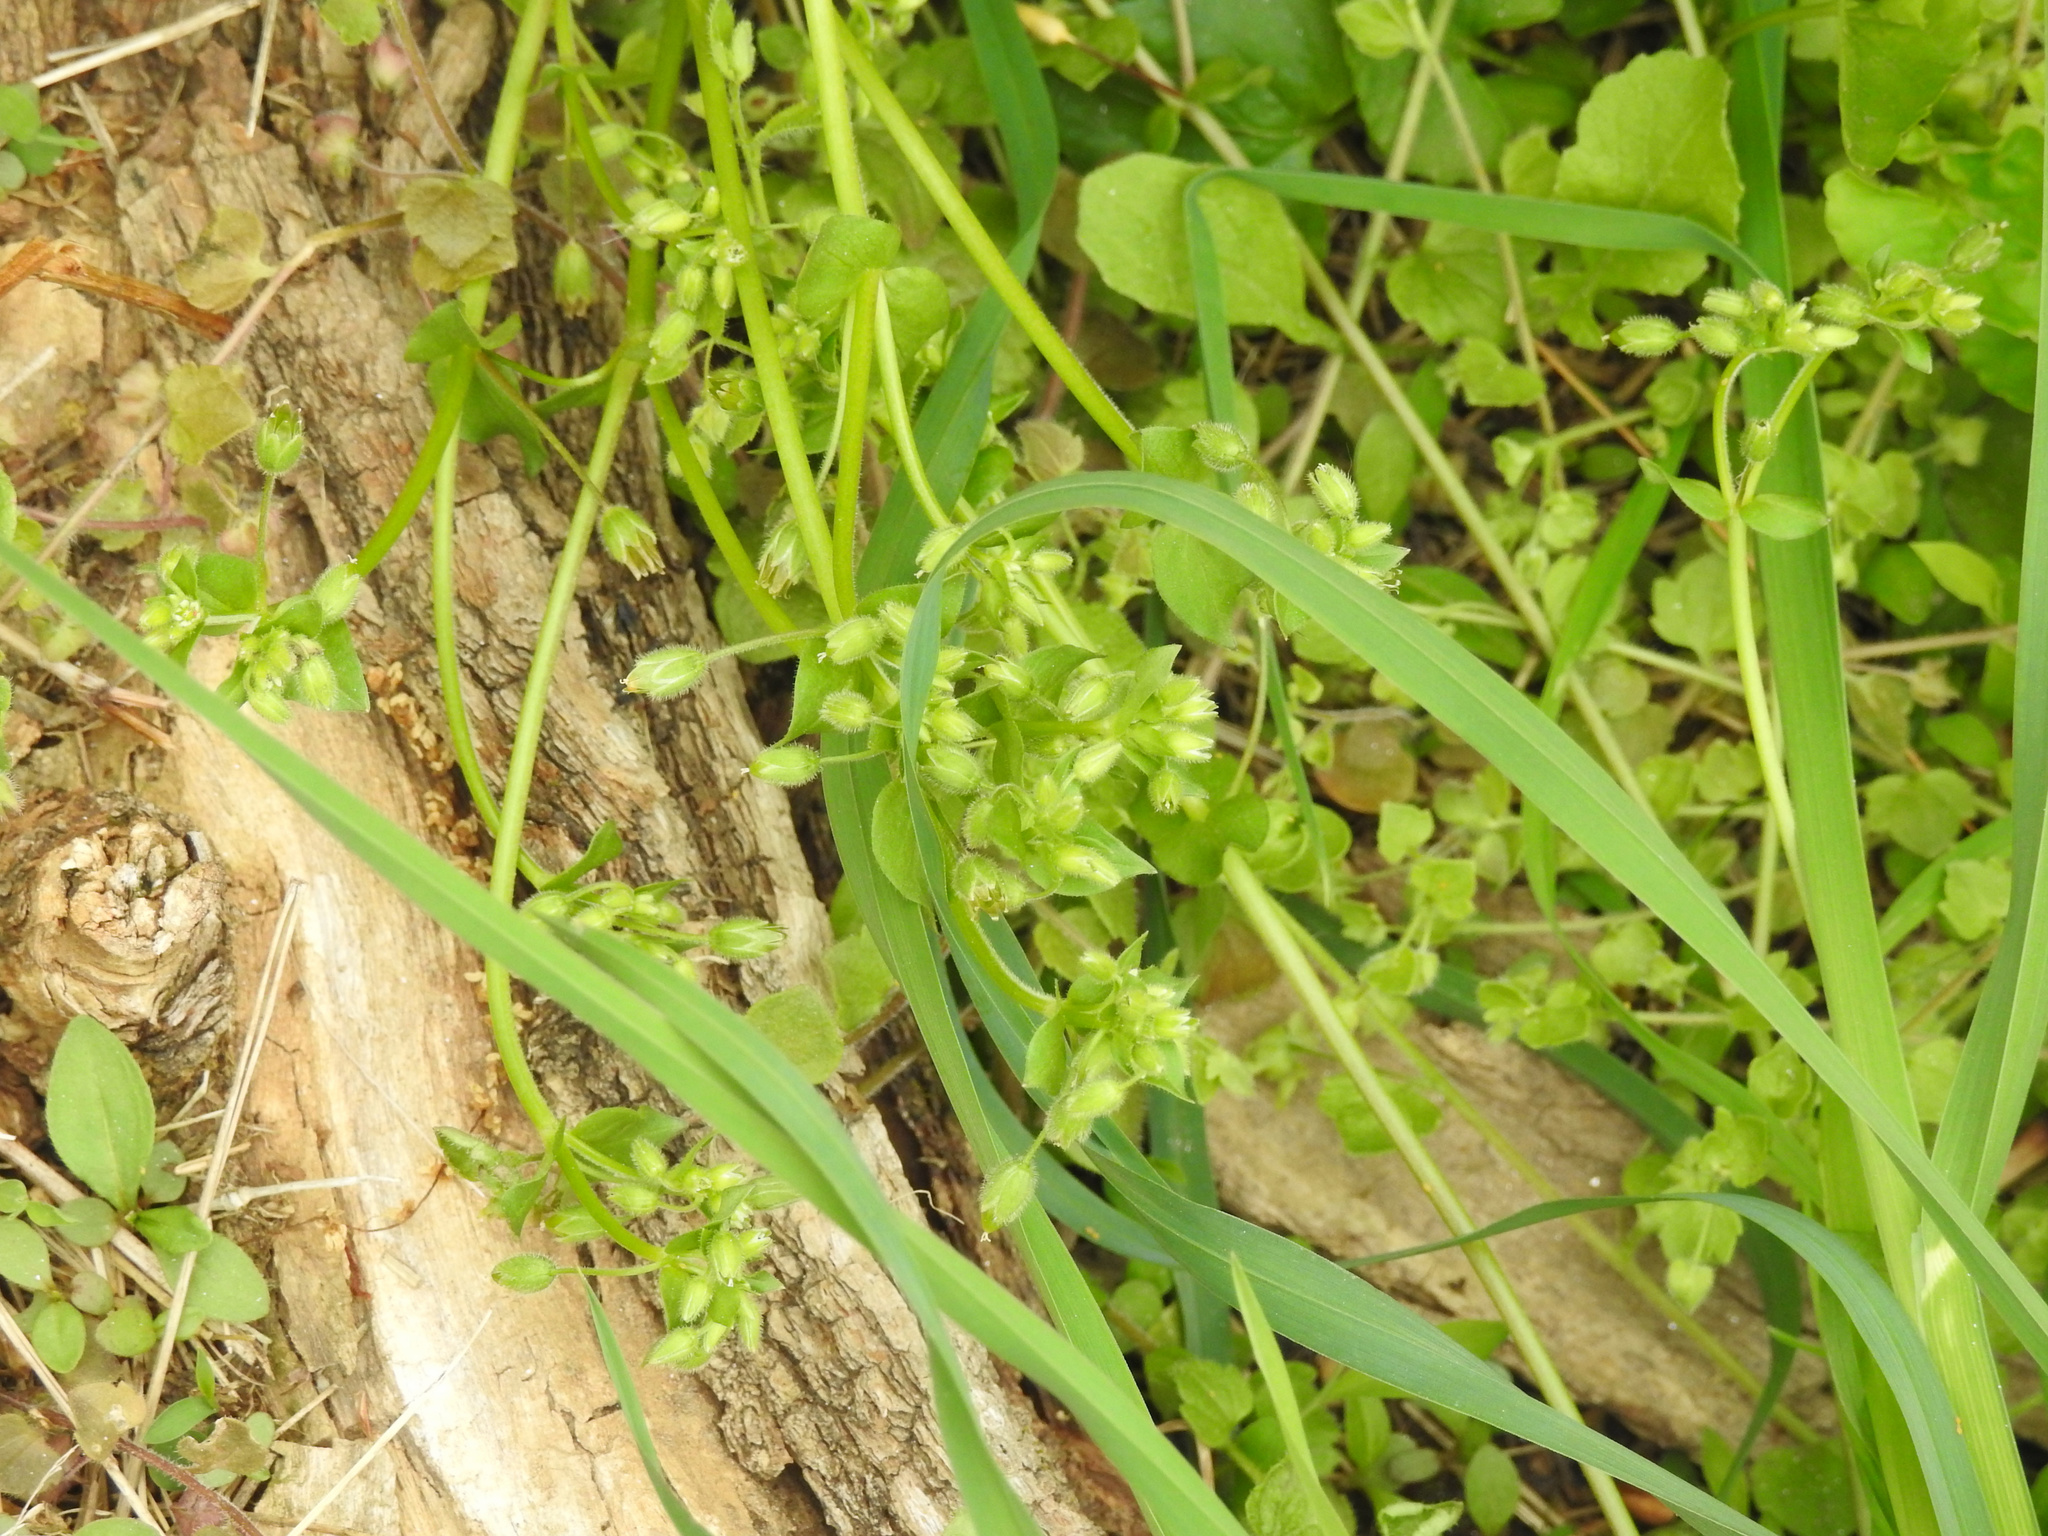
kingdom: Plantae
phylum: Tracheophyta
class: Magnoliopsida
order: Caryophyllales
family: Caryophyllaceae
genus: Stellaria
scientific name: Stellaria media
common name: Common chickweed
